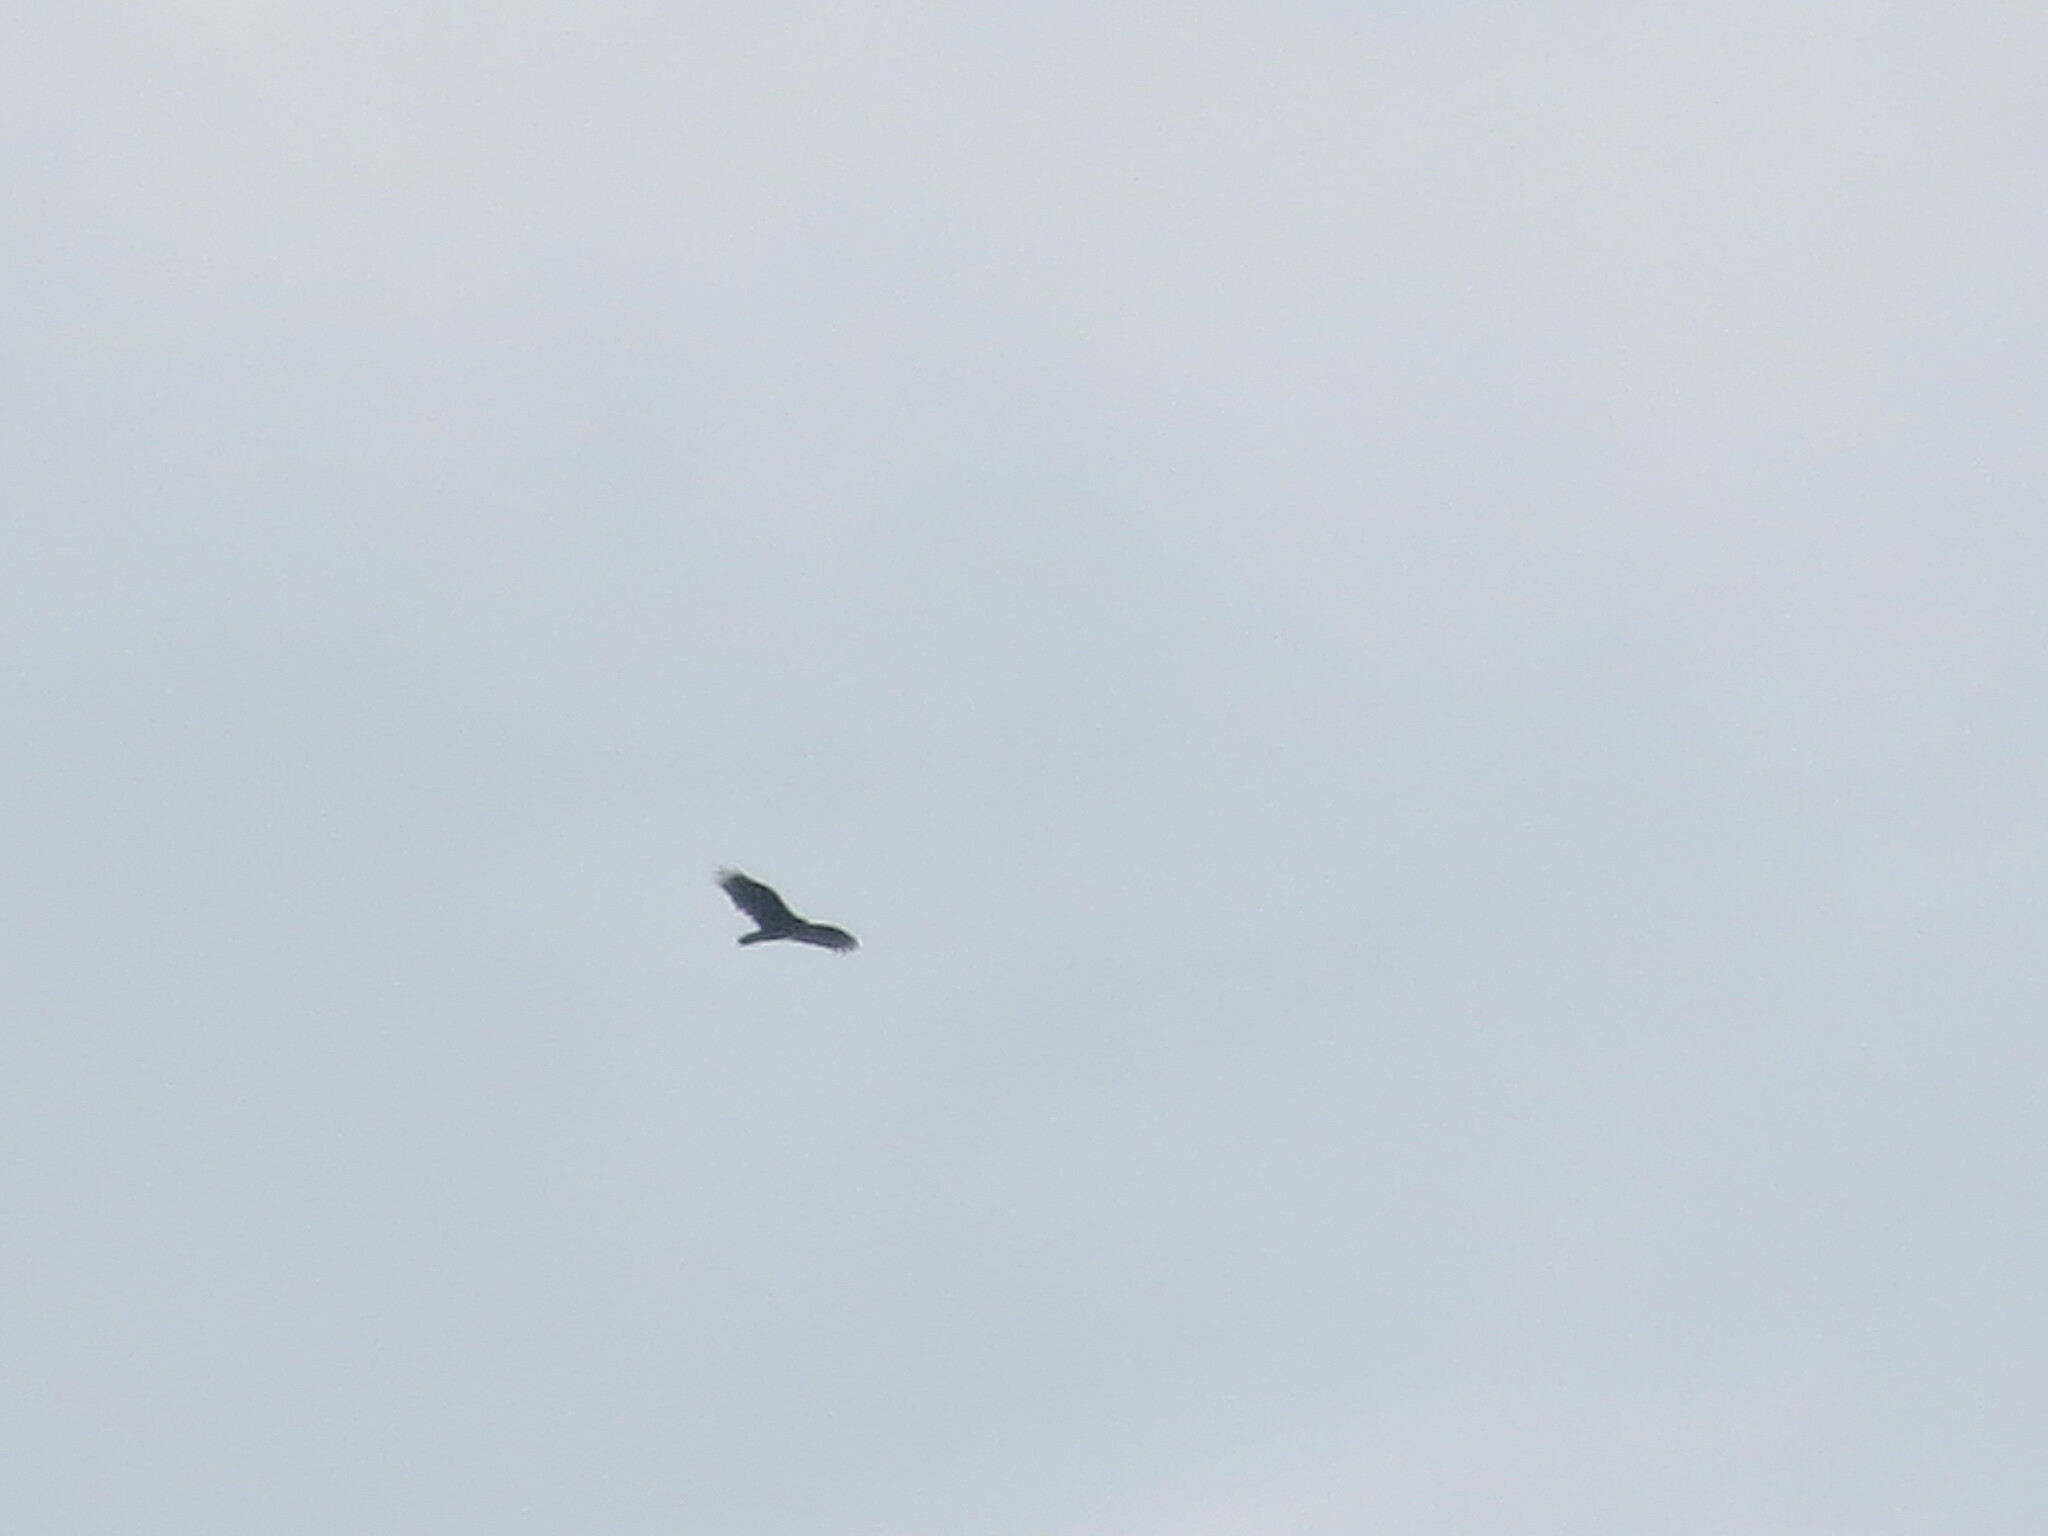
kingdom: Animalia
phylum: Chordata
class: Aves
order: Accipitriformes
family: Cathartidae
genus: Cathartes
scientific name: Cathartes aura
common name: Turkey vulture
